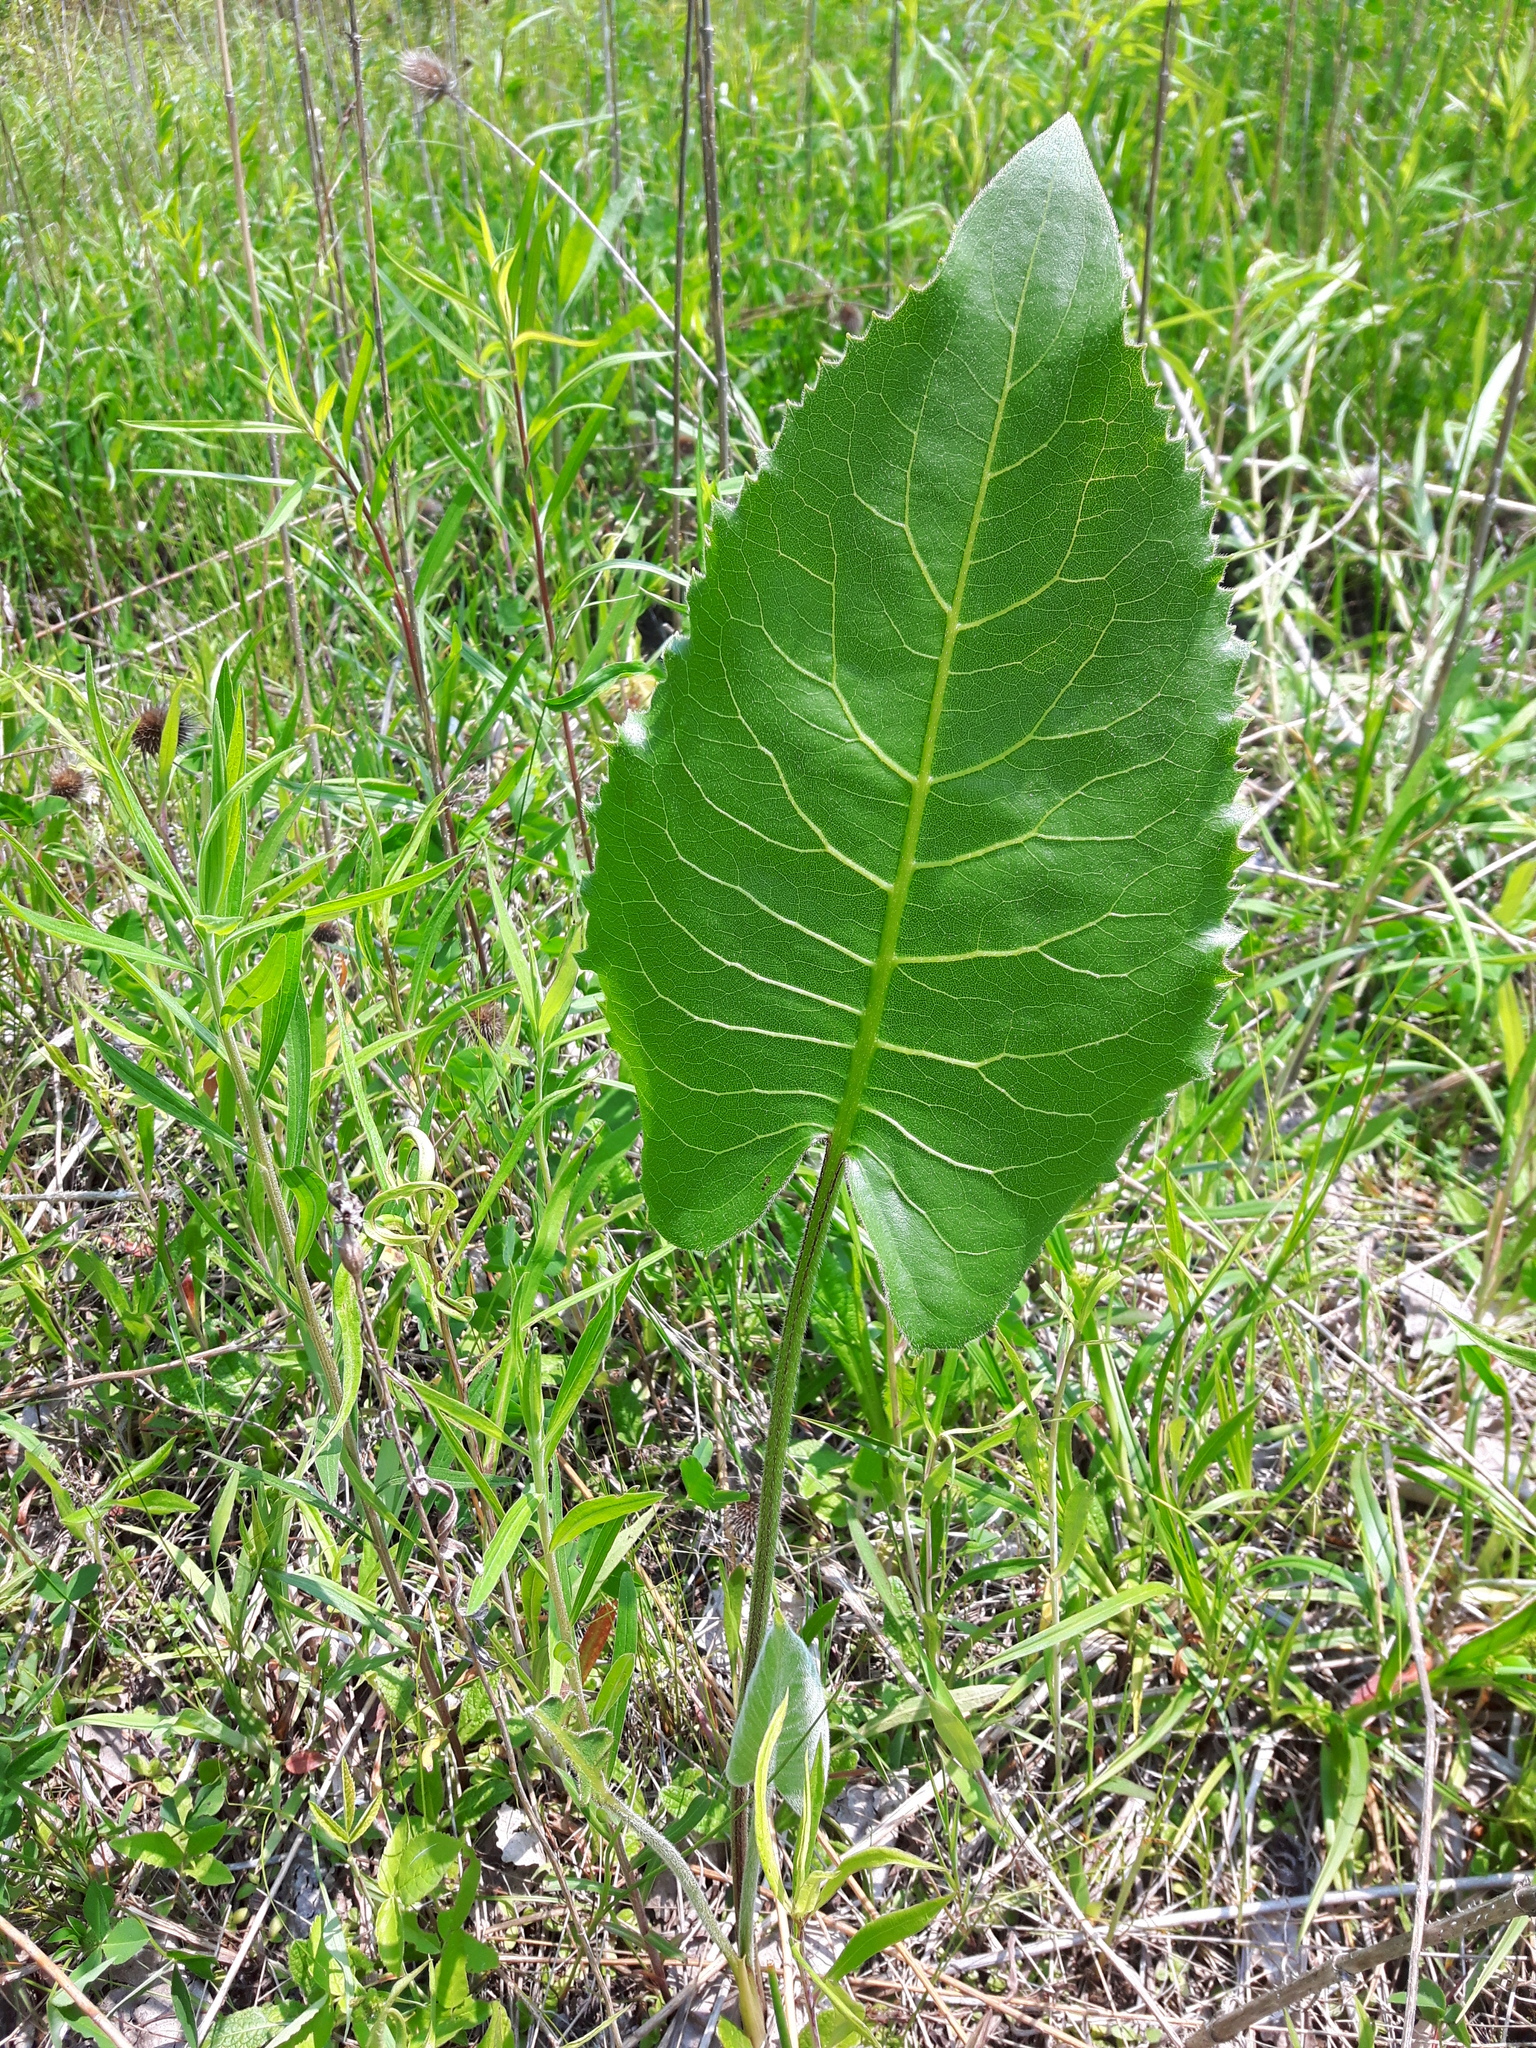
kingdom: Plantae
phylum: Tracheophyta
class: Magnoliopsida
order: Asterales
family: Asteraceae
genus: Silphium
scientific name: Silphium terebinthinaceum
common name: Basal-leaf rosinweed
